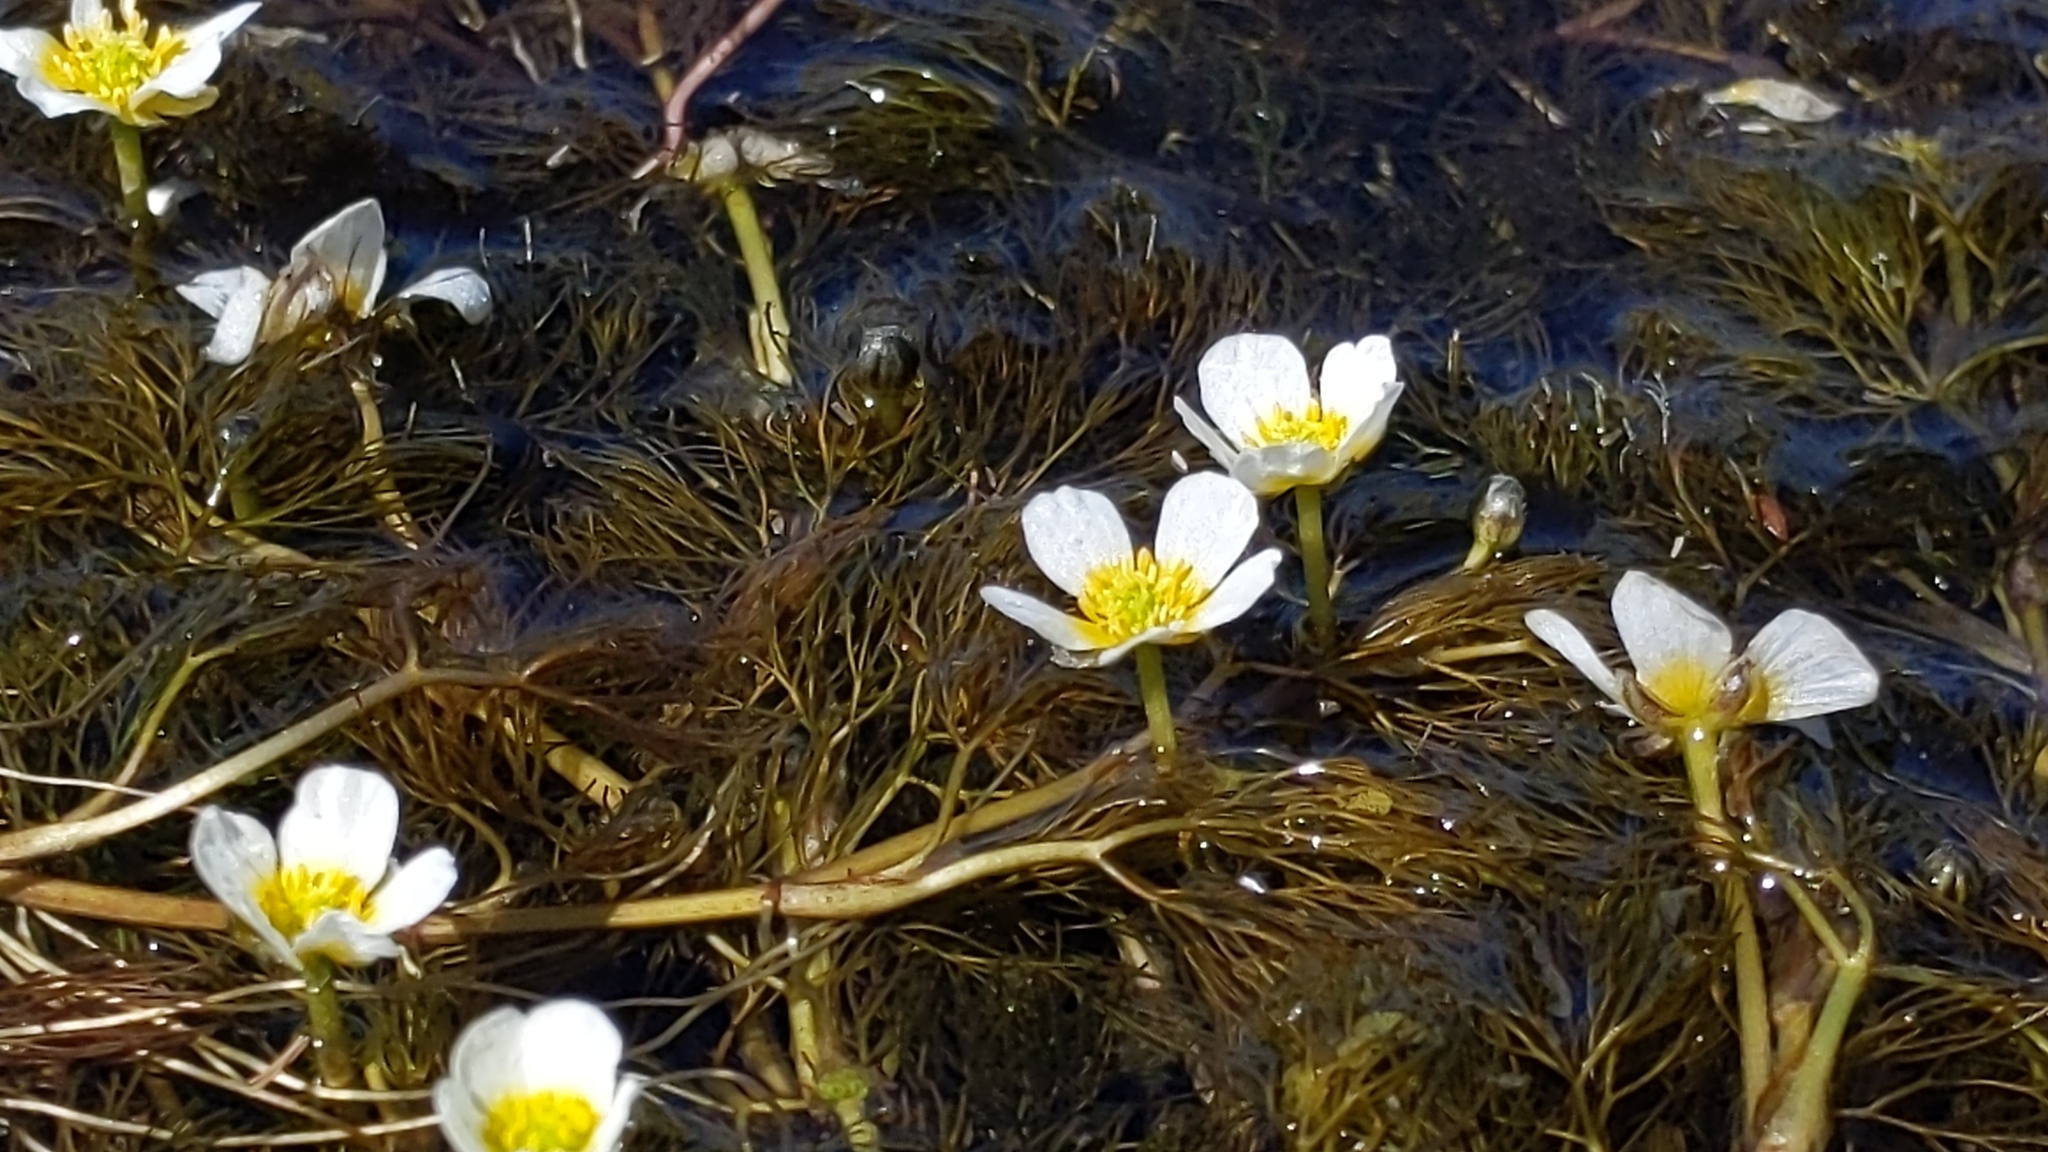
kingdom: Plantae
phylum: Tracheophyta
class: Magnoliopsida
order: Ranunculales
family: Ranunculaceae
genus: Ranunculus
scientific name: Ranunculus trichophyllus
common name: Thread-leaved water-crowfoot
